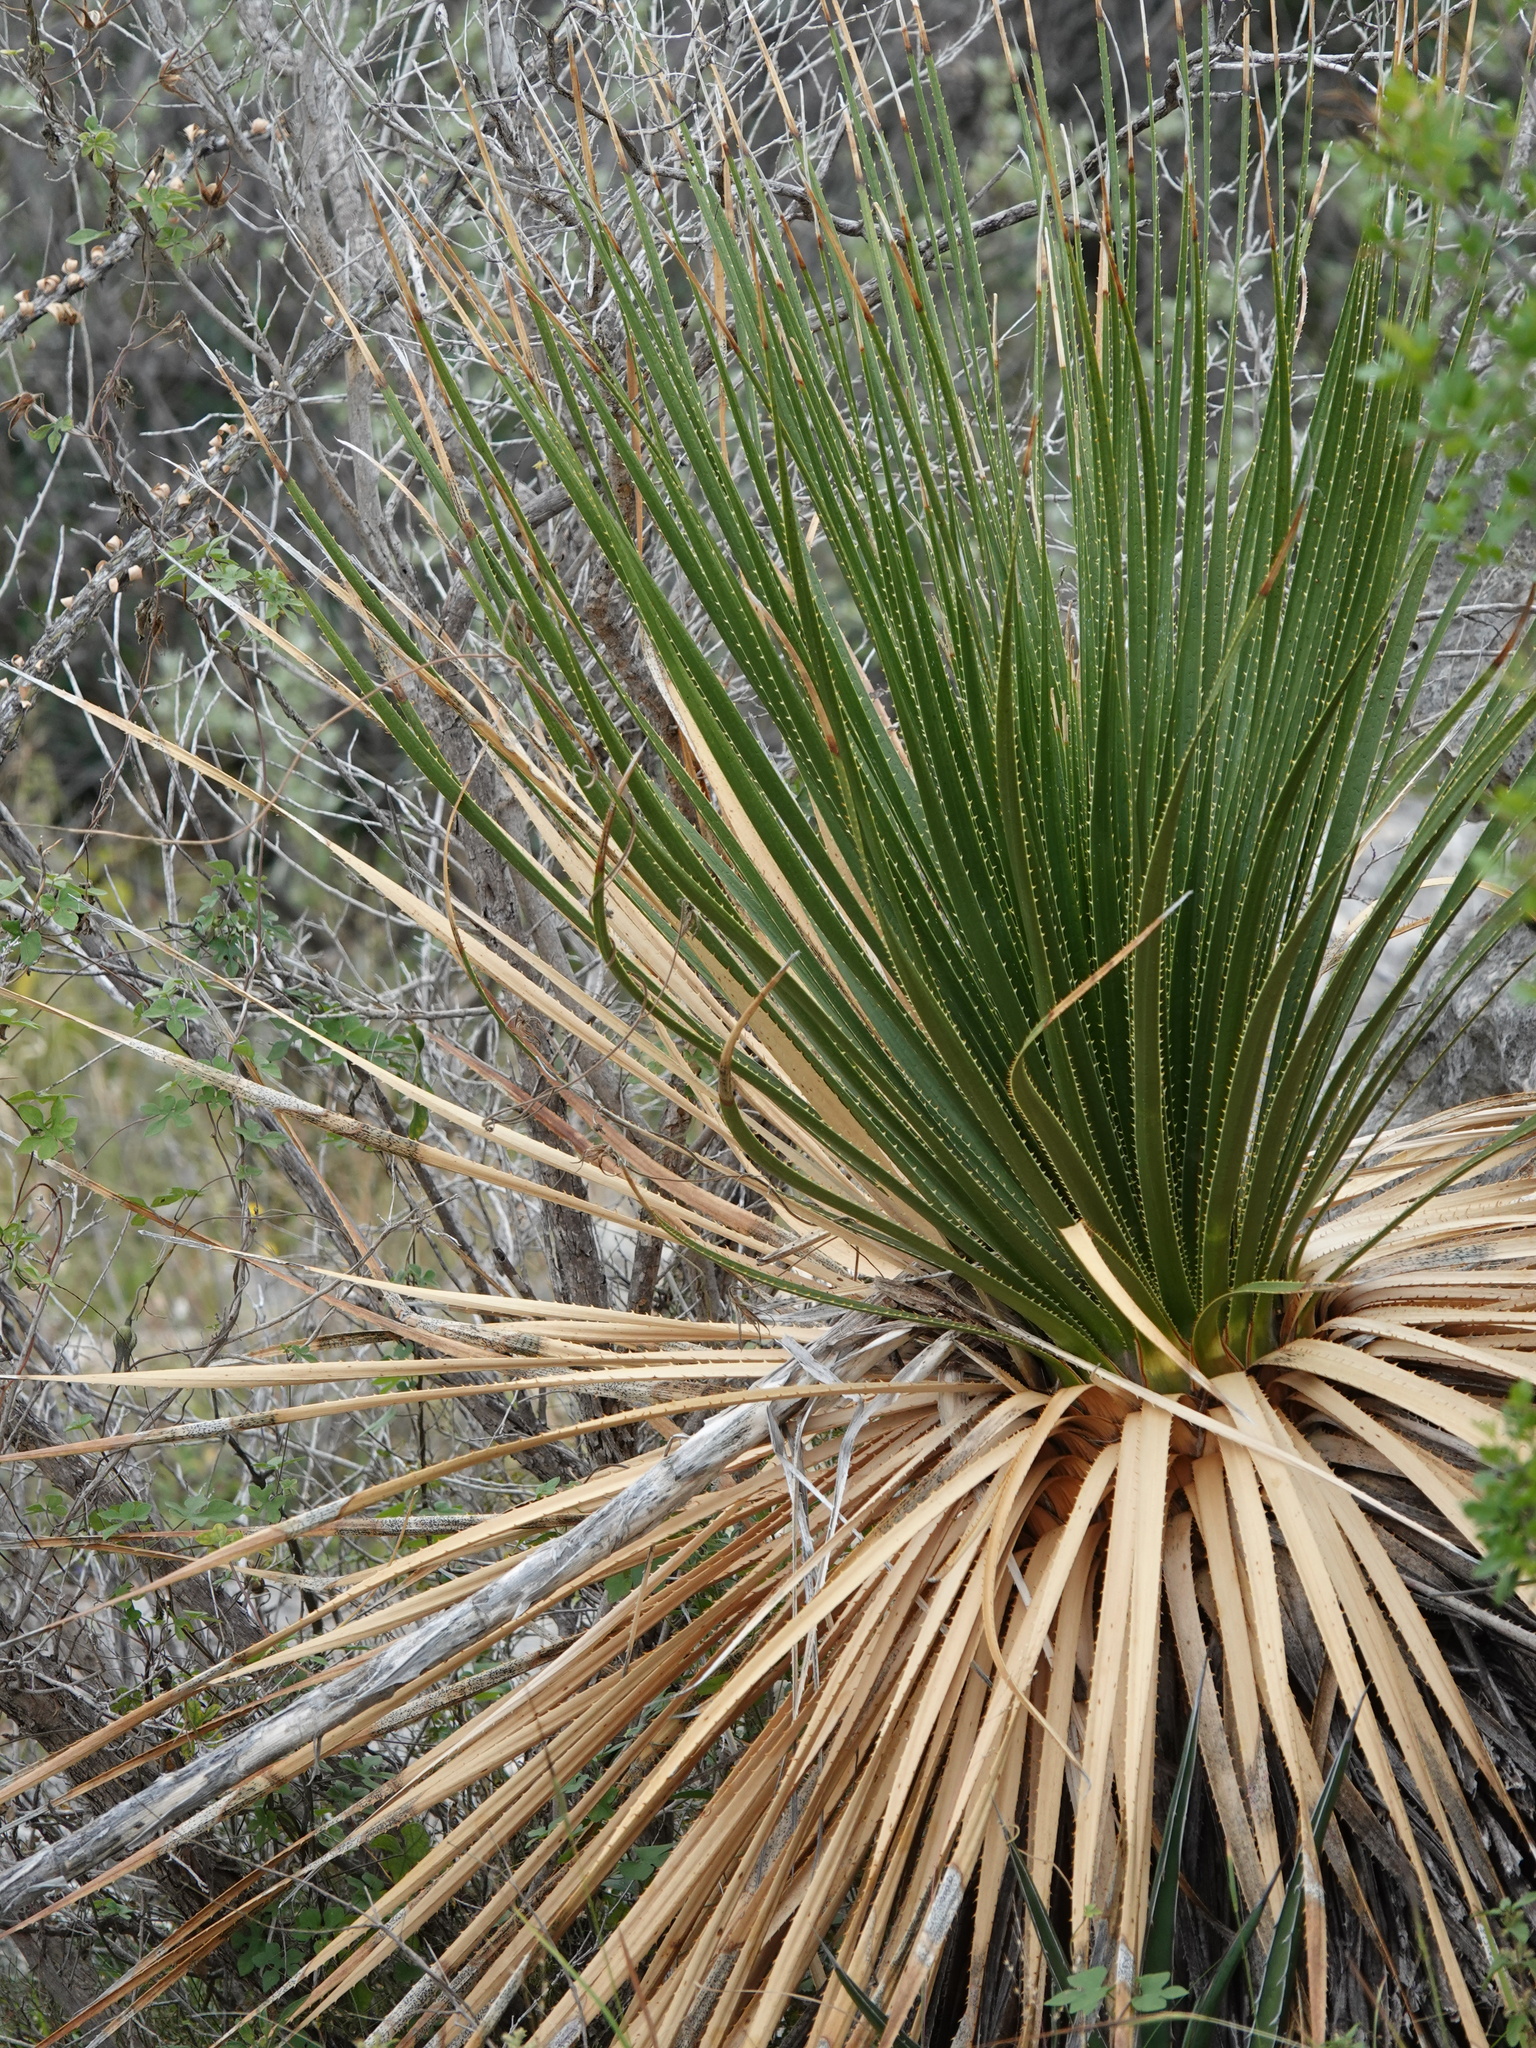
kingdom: Plantae
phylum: Tracheophyta
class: Liliopsida
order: Asparagales
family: Asparagaceae
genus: Dasylirion
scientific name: Dasylirion texanum
